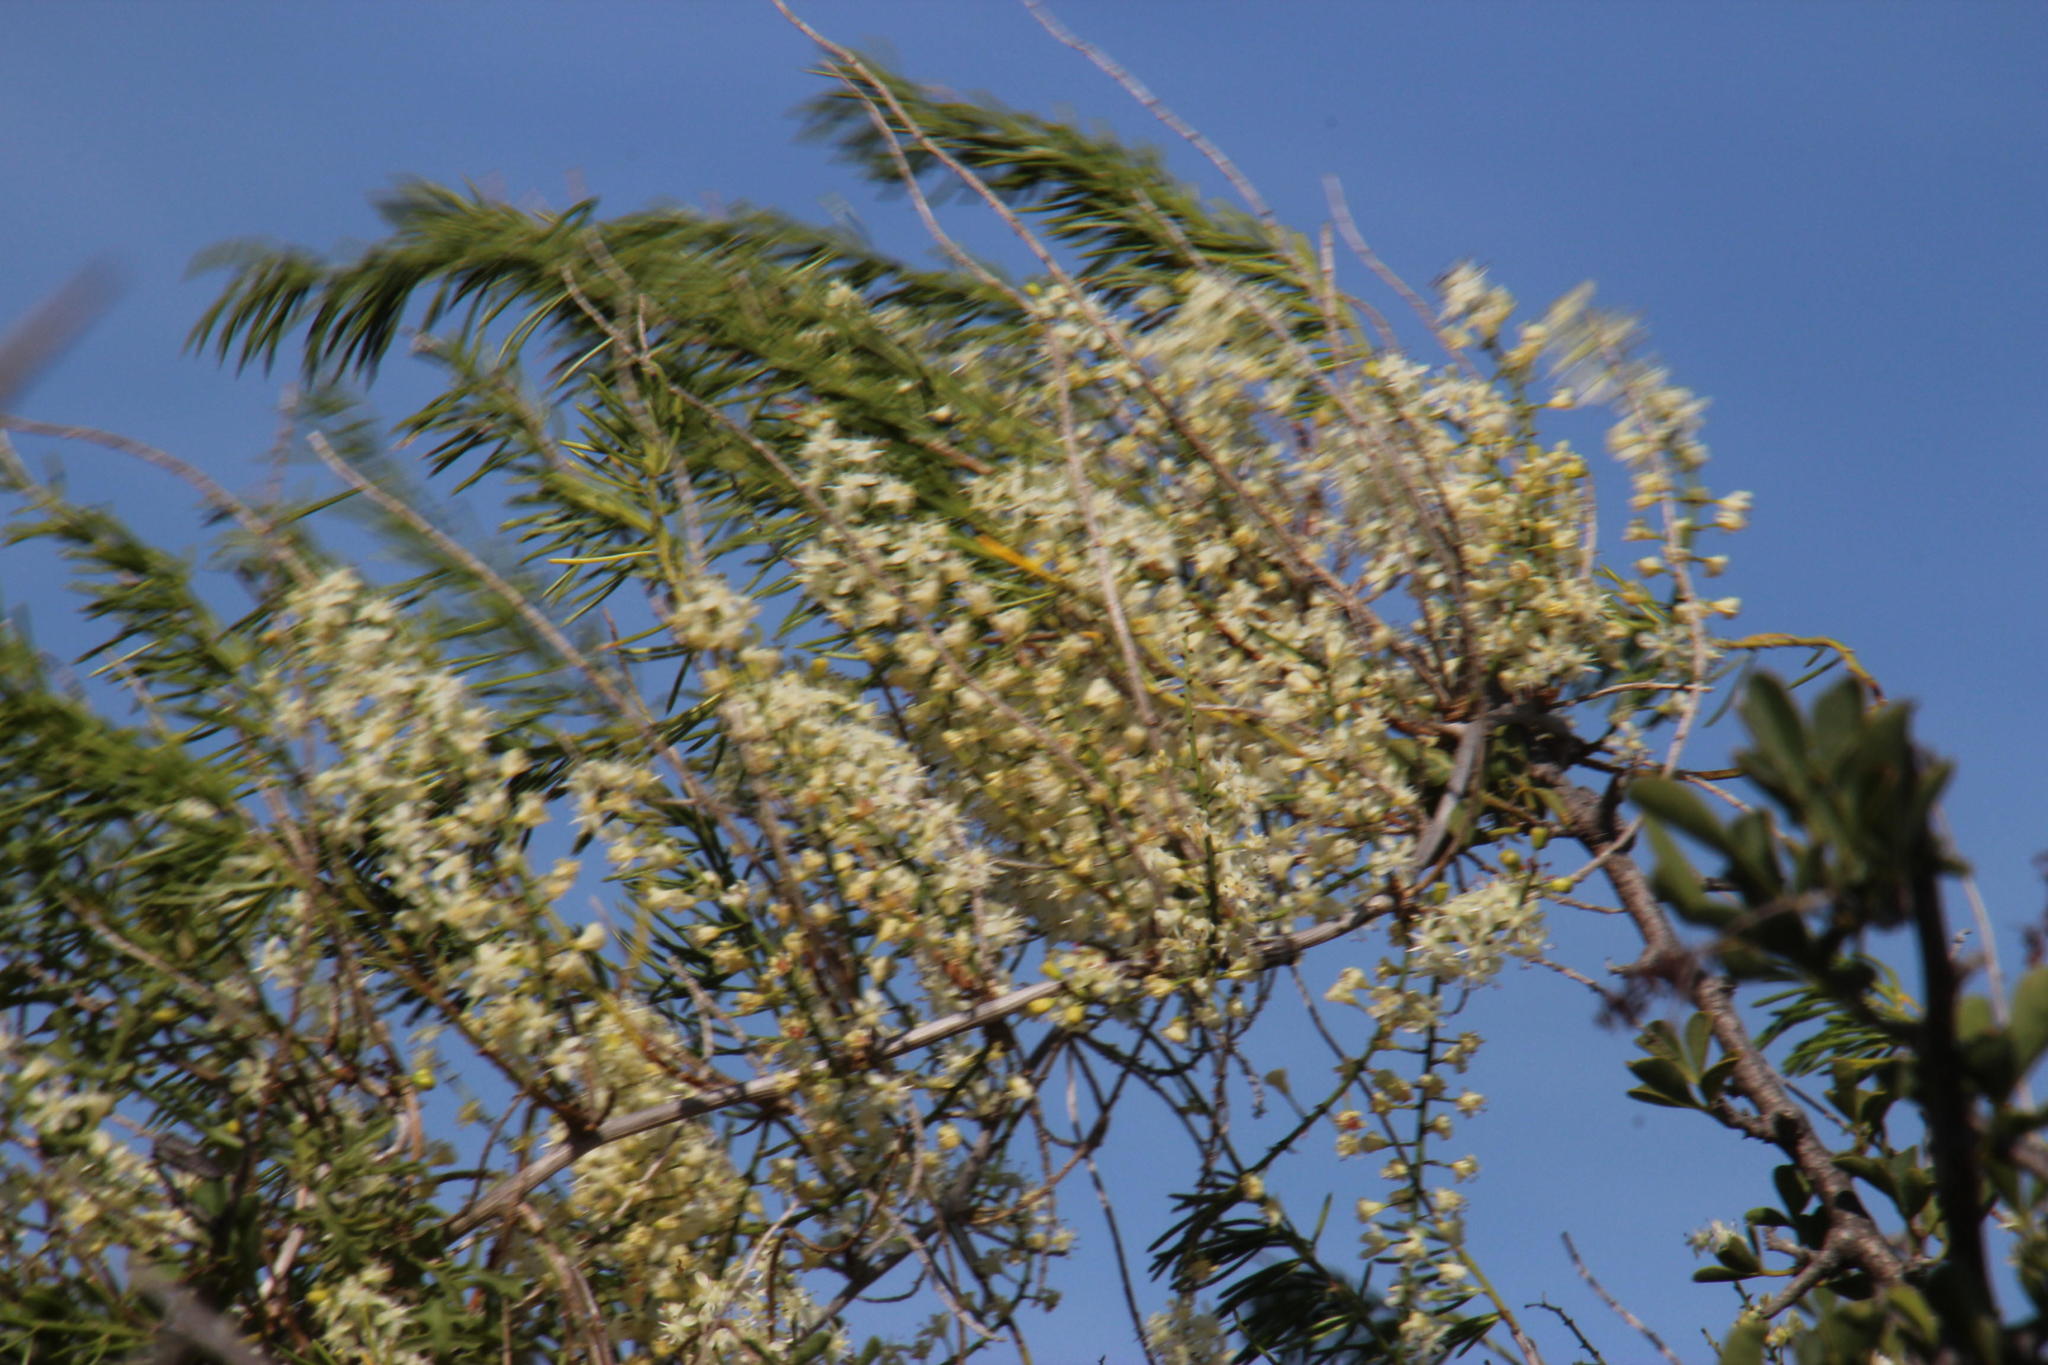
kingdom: Plantae
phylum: Tracheophyta
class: Liliopsida
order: Asparagales
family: Asparagaceae
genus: Asparagus
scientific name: Asparagus aethiopicus
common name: Sprenger's asparagus fern
